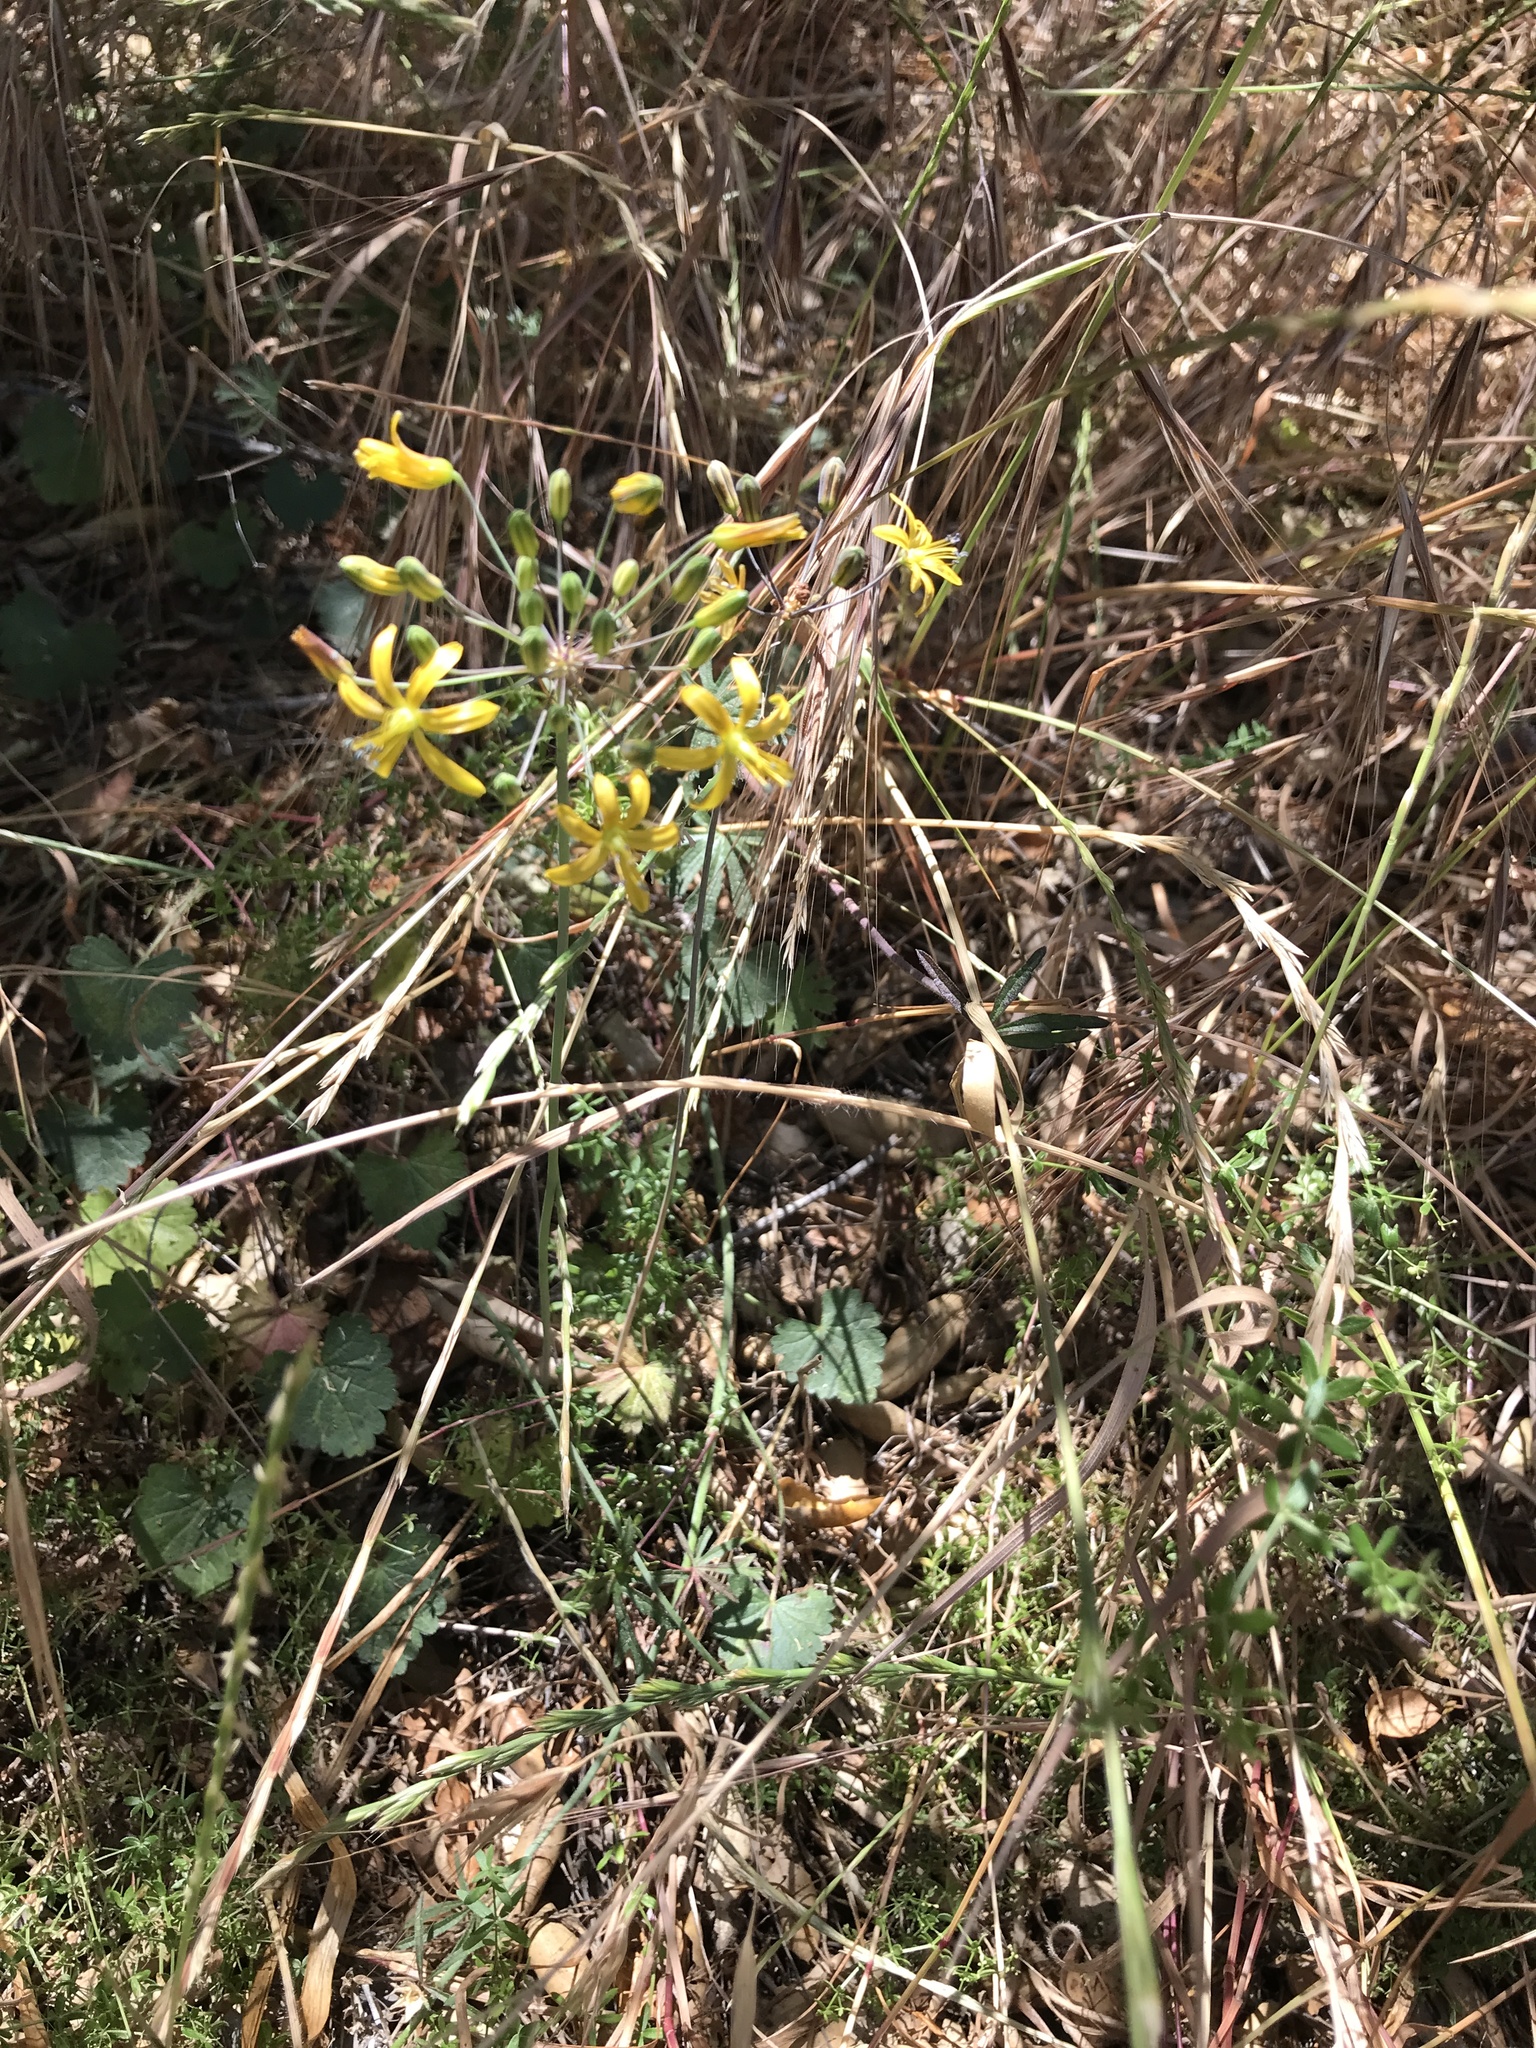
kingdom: Plantae
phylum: Tracheophyta
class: Liliopsida
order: Asparagales
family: Asparagaceae
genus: Bloomeria
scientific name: Bloomeria crocea
